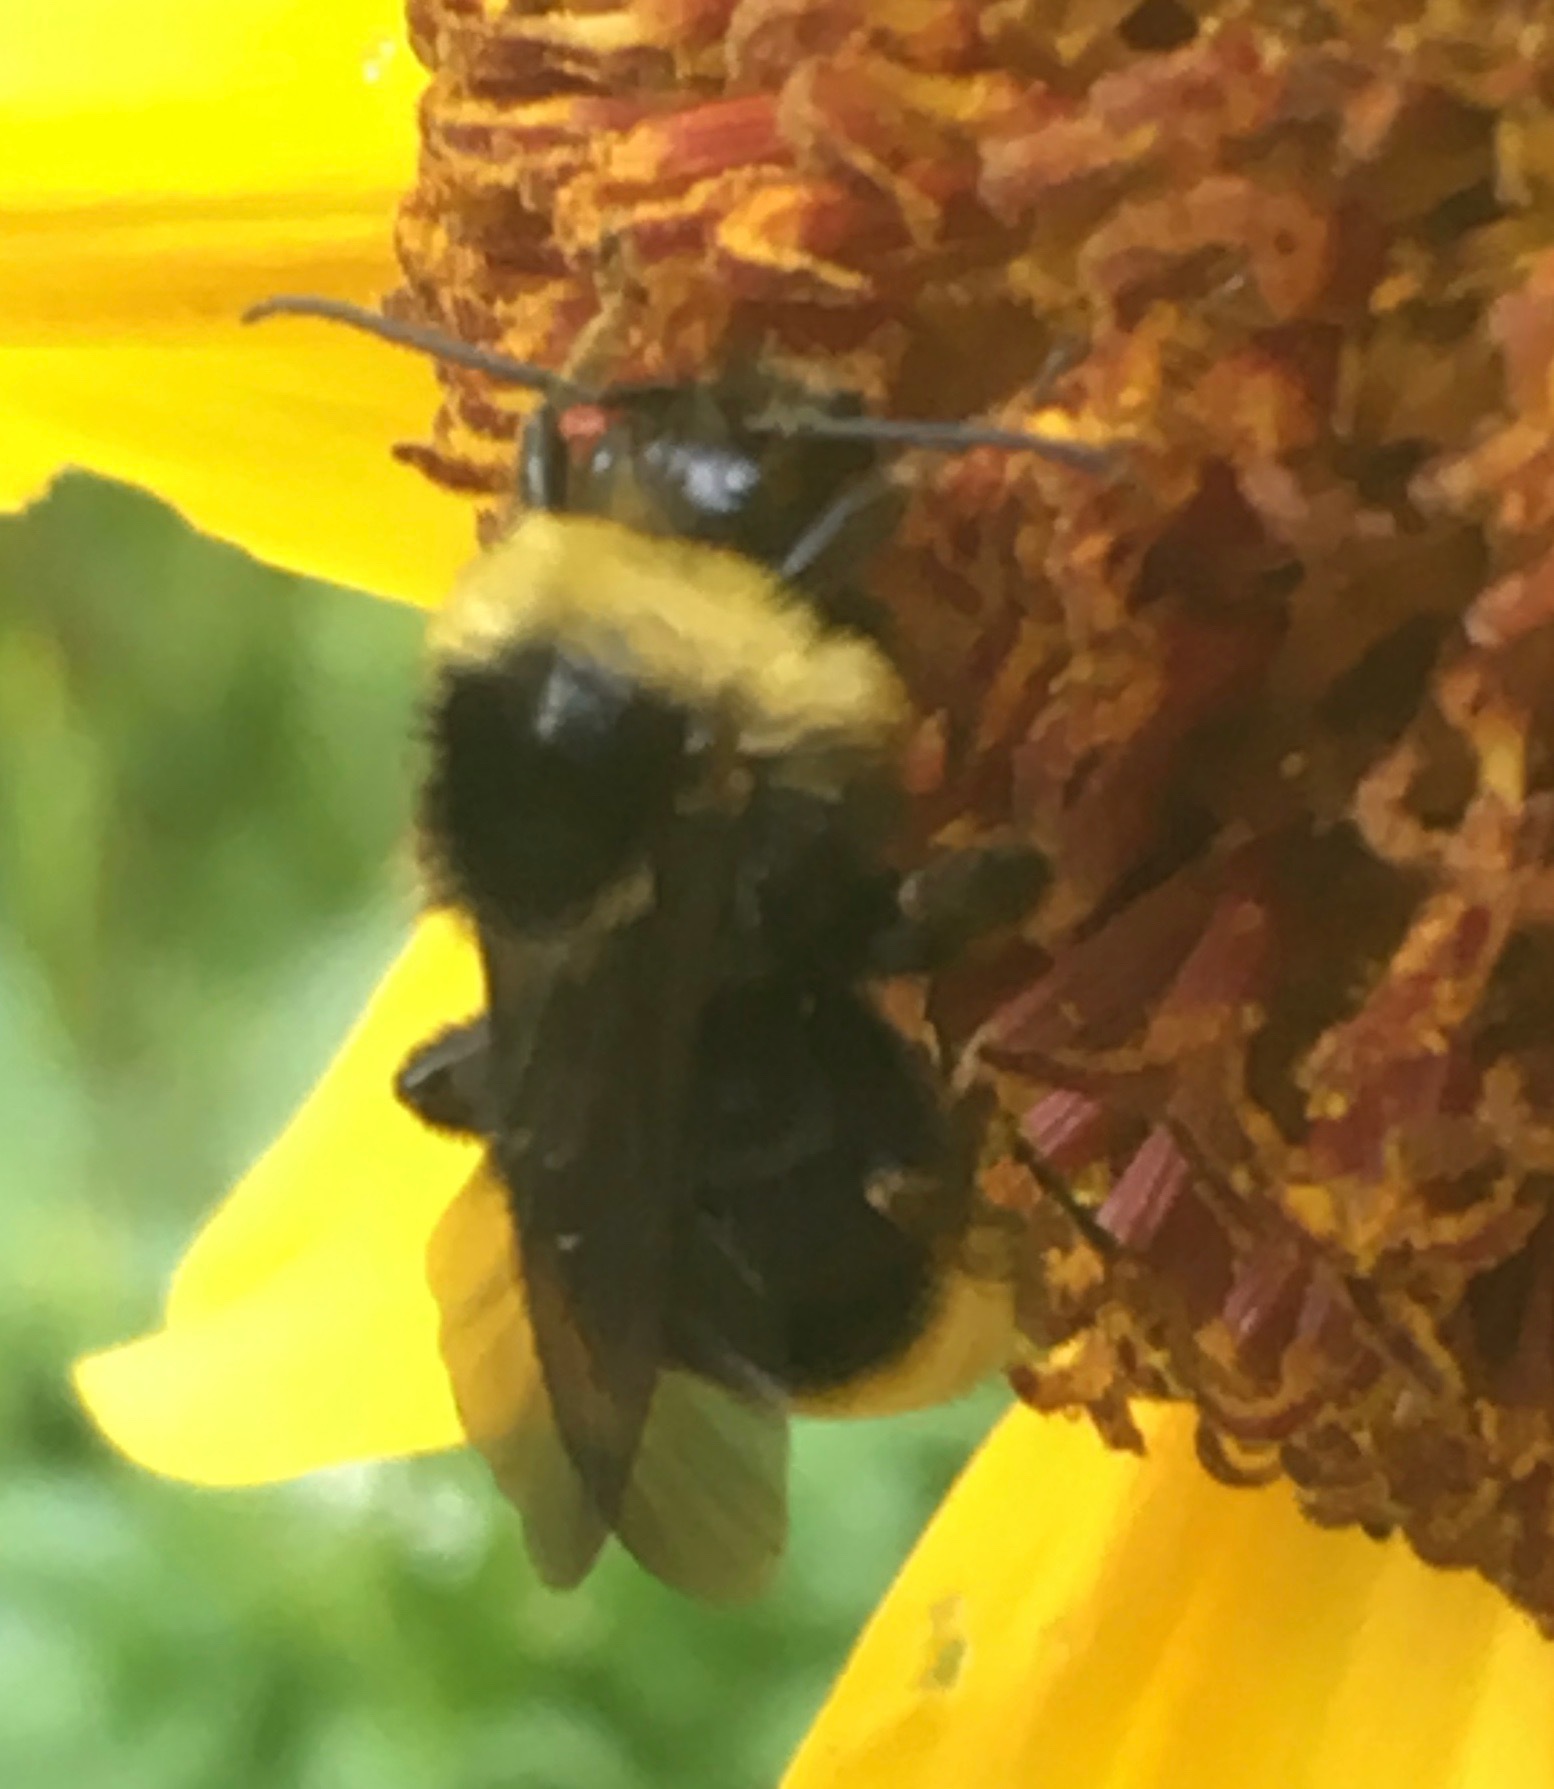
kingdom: Animalia
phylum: Arthropoda
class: Insecta
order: Hymenoptera
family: Apidae
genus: Bombus
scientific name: Bombus californicus
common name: California bumble bee
